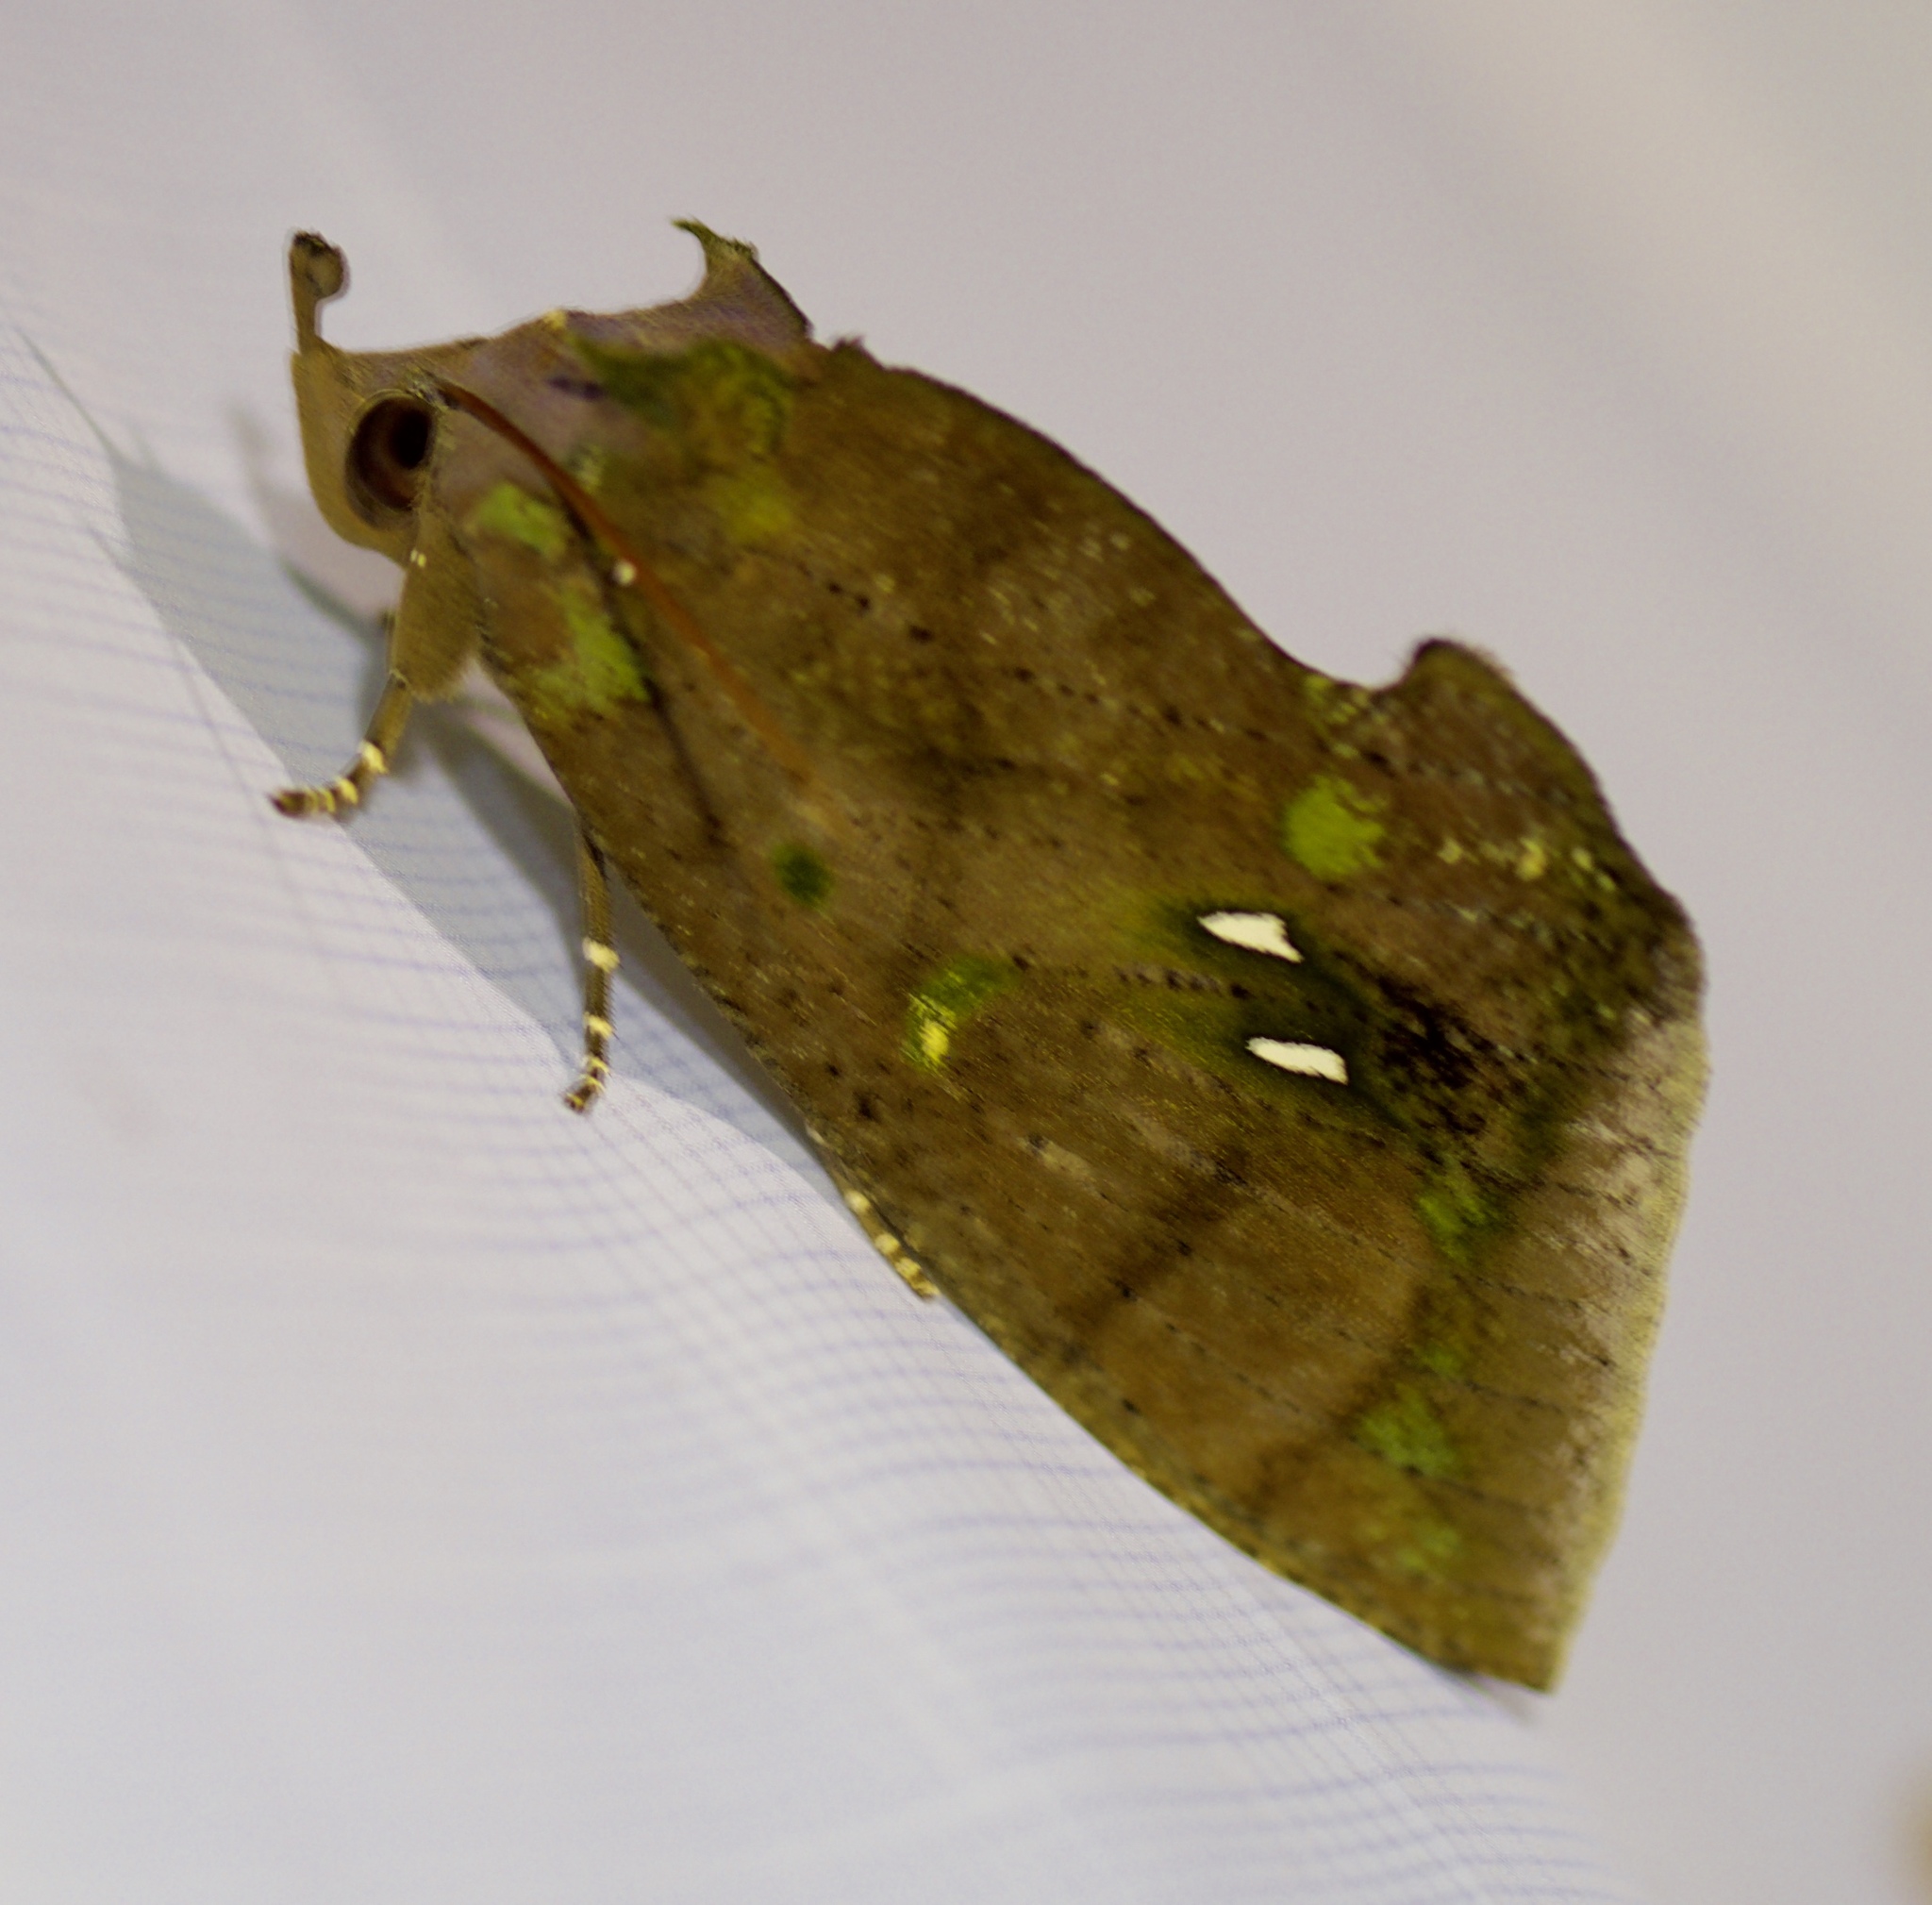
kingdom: Animalia
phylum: Arthropoda
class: Insecta
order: Lepidoptera
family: Erebidae
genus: Eudocima
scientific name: Eudocima discrepans
